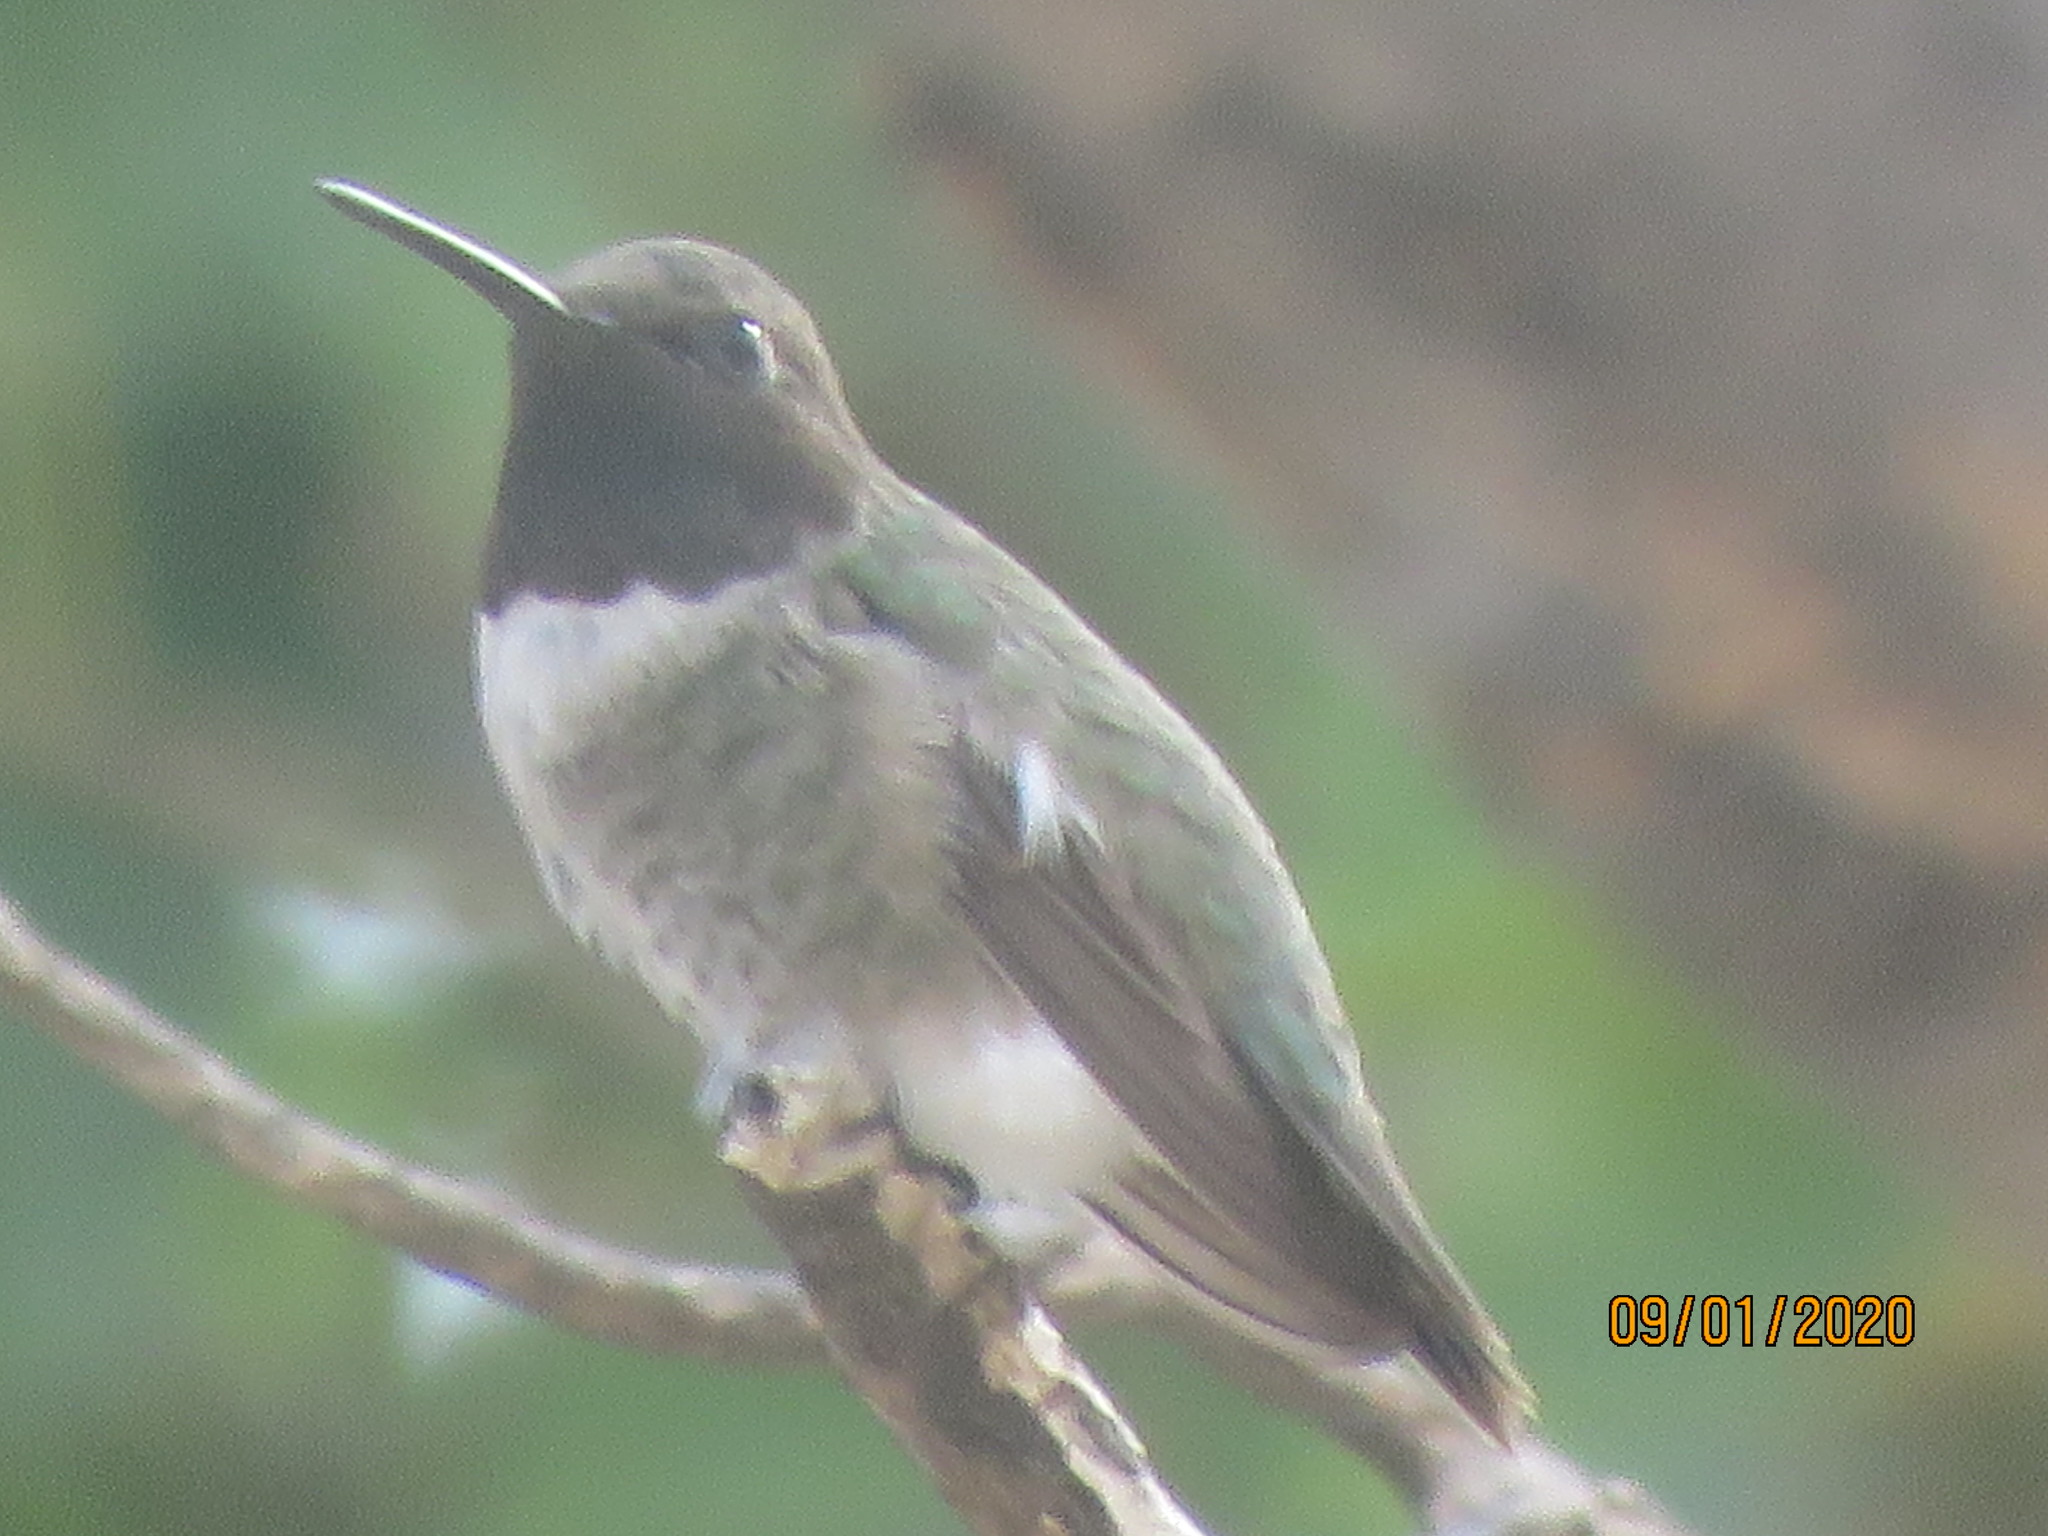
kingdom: Animalia
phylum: Chordata
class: Aves
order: Apodiformes
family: Trochilidae
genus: Archilochus
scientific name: Archilochus alexandri
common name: Black-chinned hummingbird
